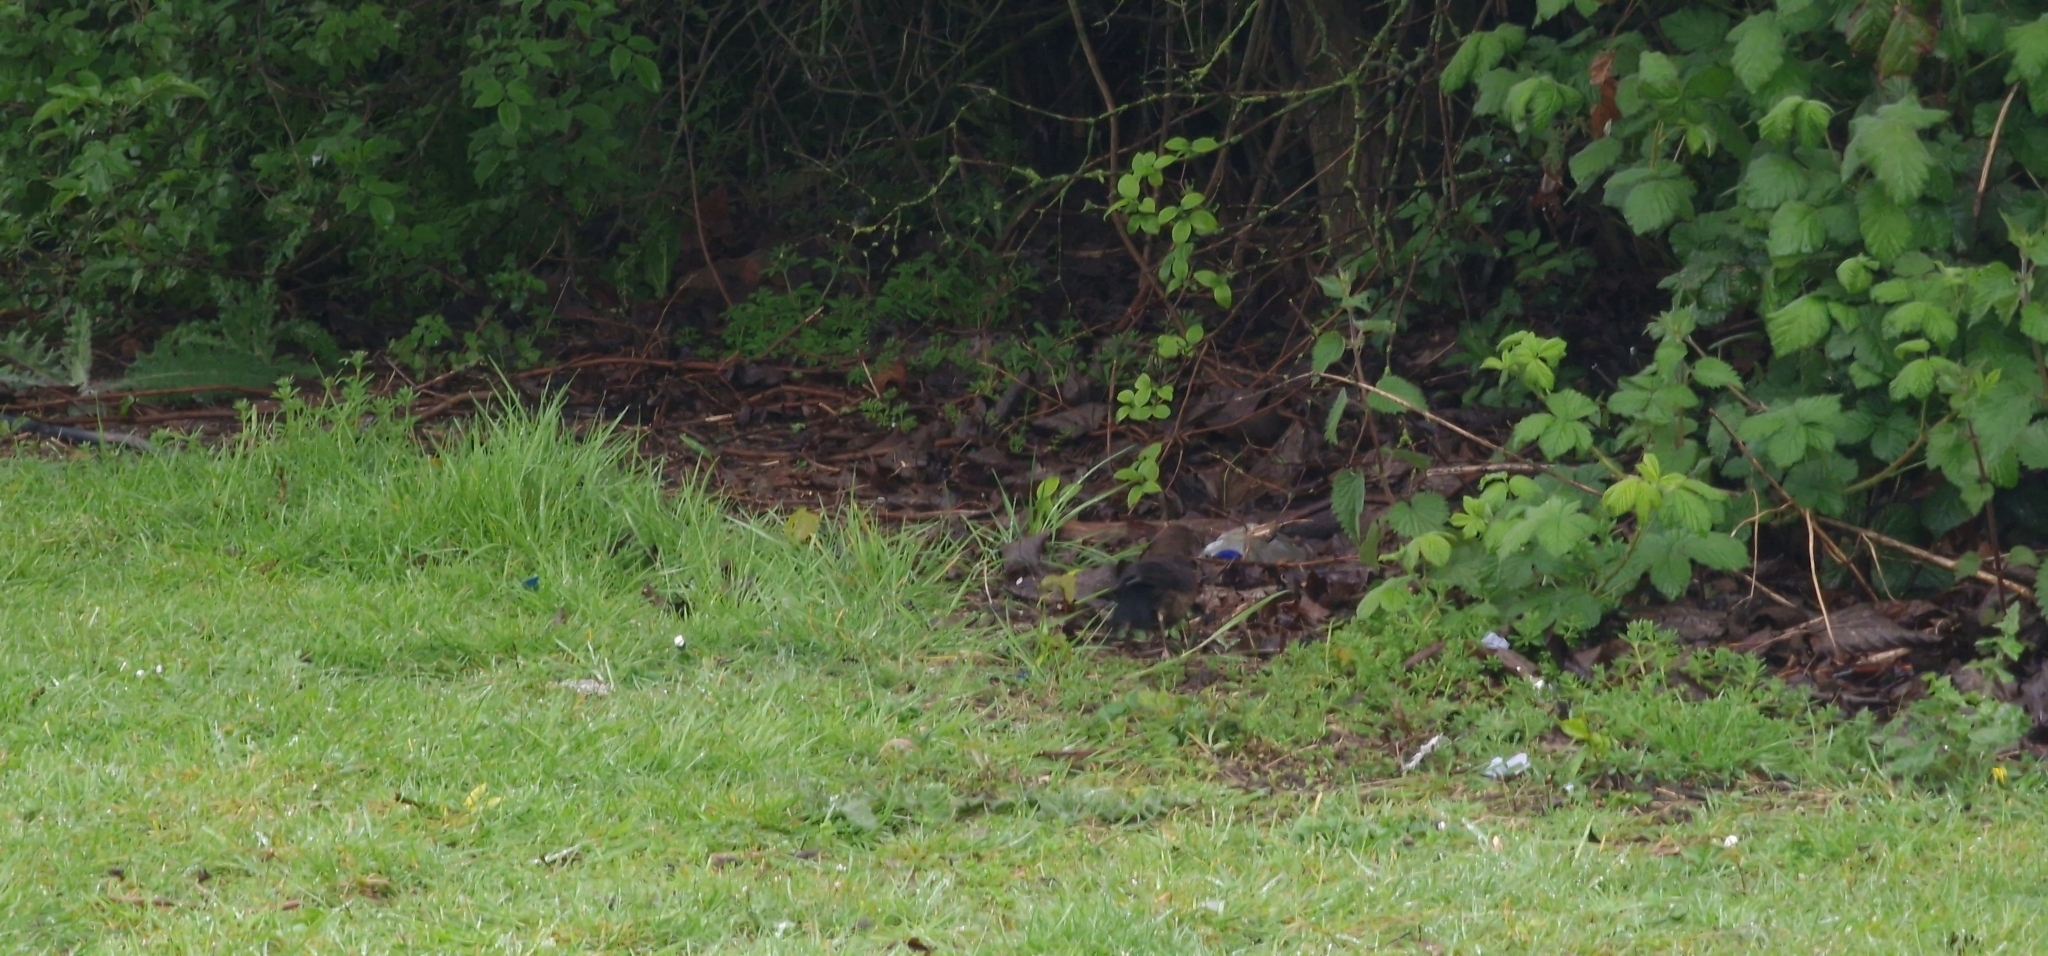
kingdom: Animalia
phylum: Chordata
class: Aves
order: Passeriformes
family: Turdidae
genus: Turdus
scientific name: Turdus merula
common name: Common blackbird
